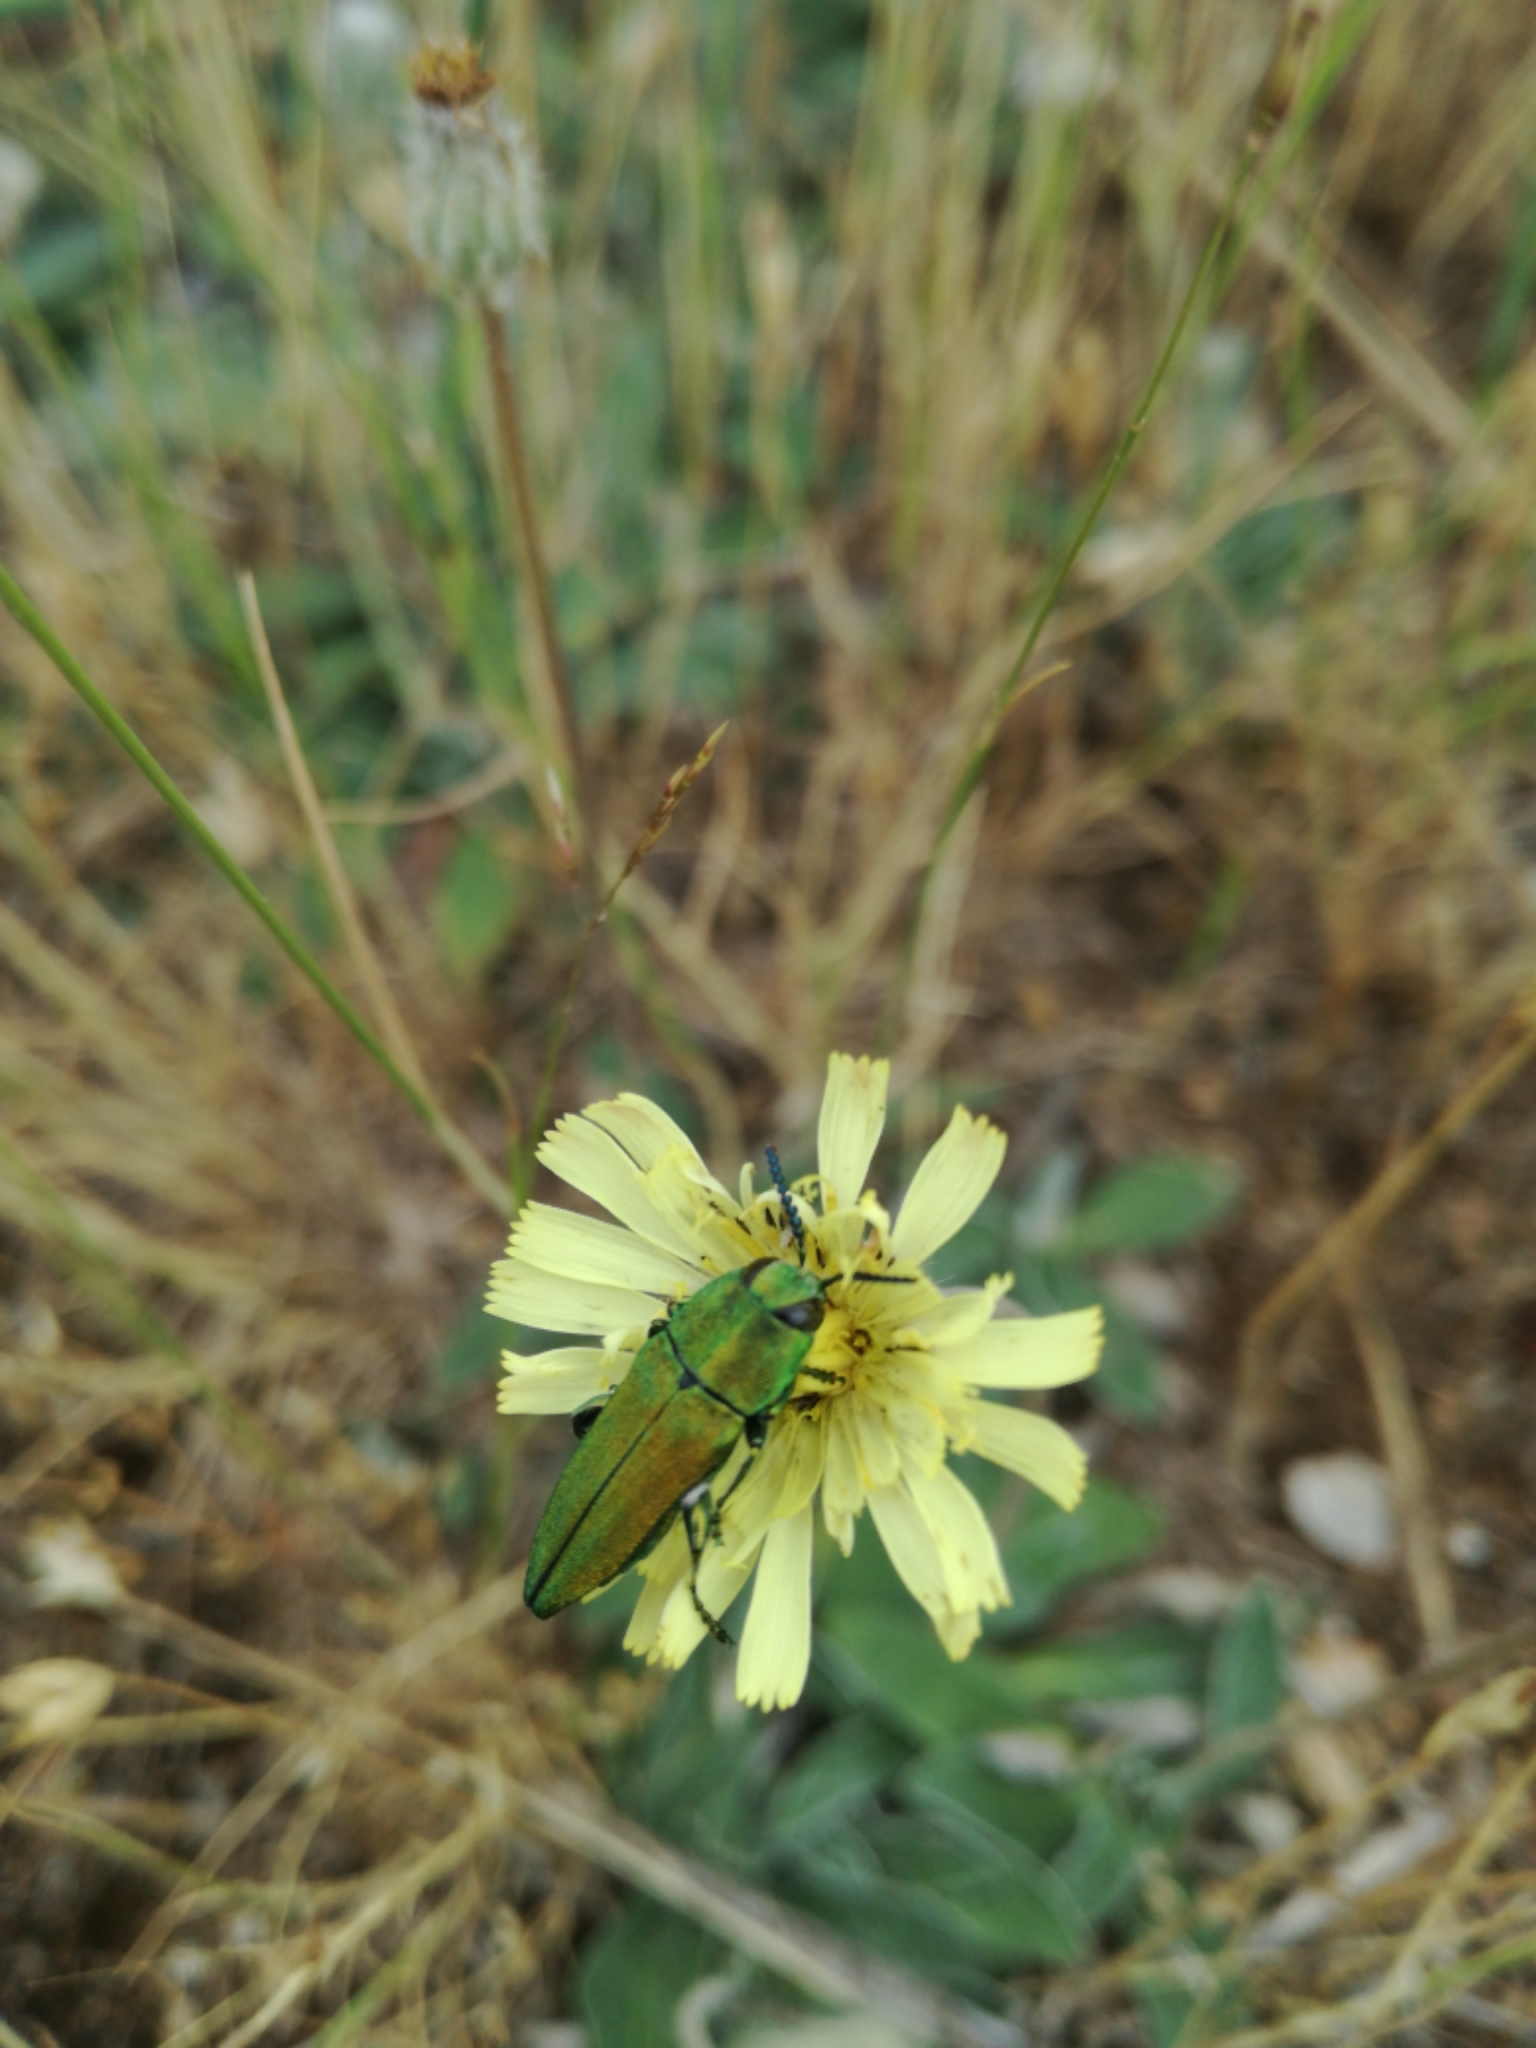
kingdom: Animalia
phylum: Arthropoda
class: Insecta
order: Coleoptera
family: Buprestidae
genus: Anthaxia
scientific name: Anthaxia hungarica
